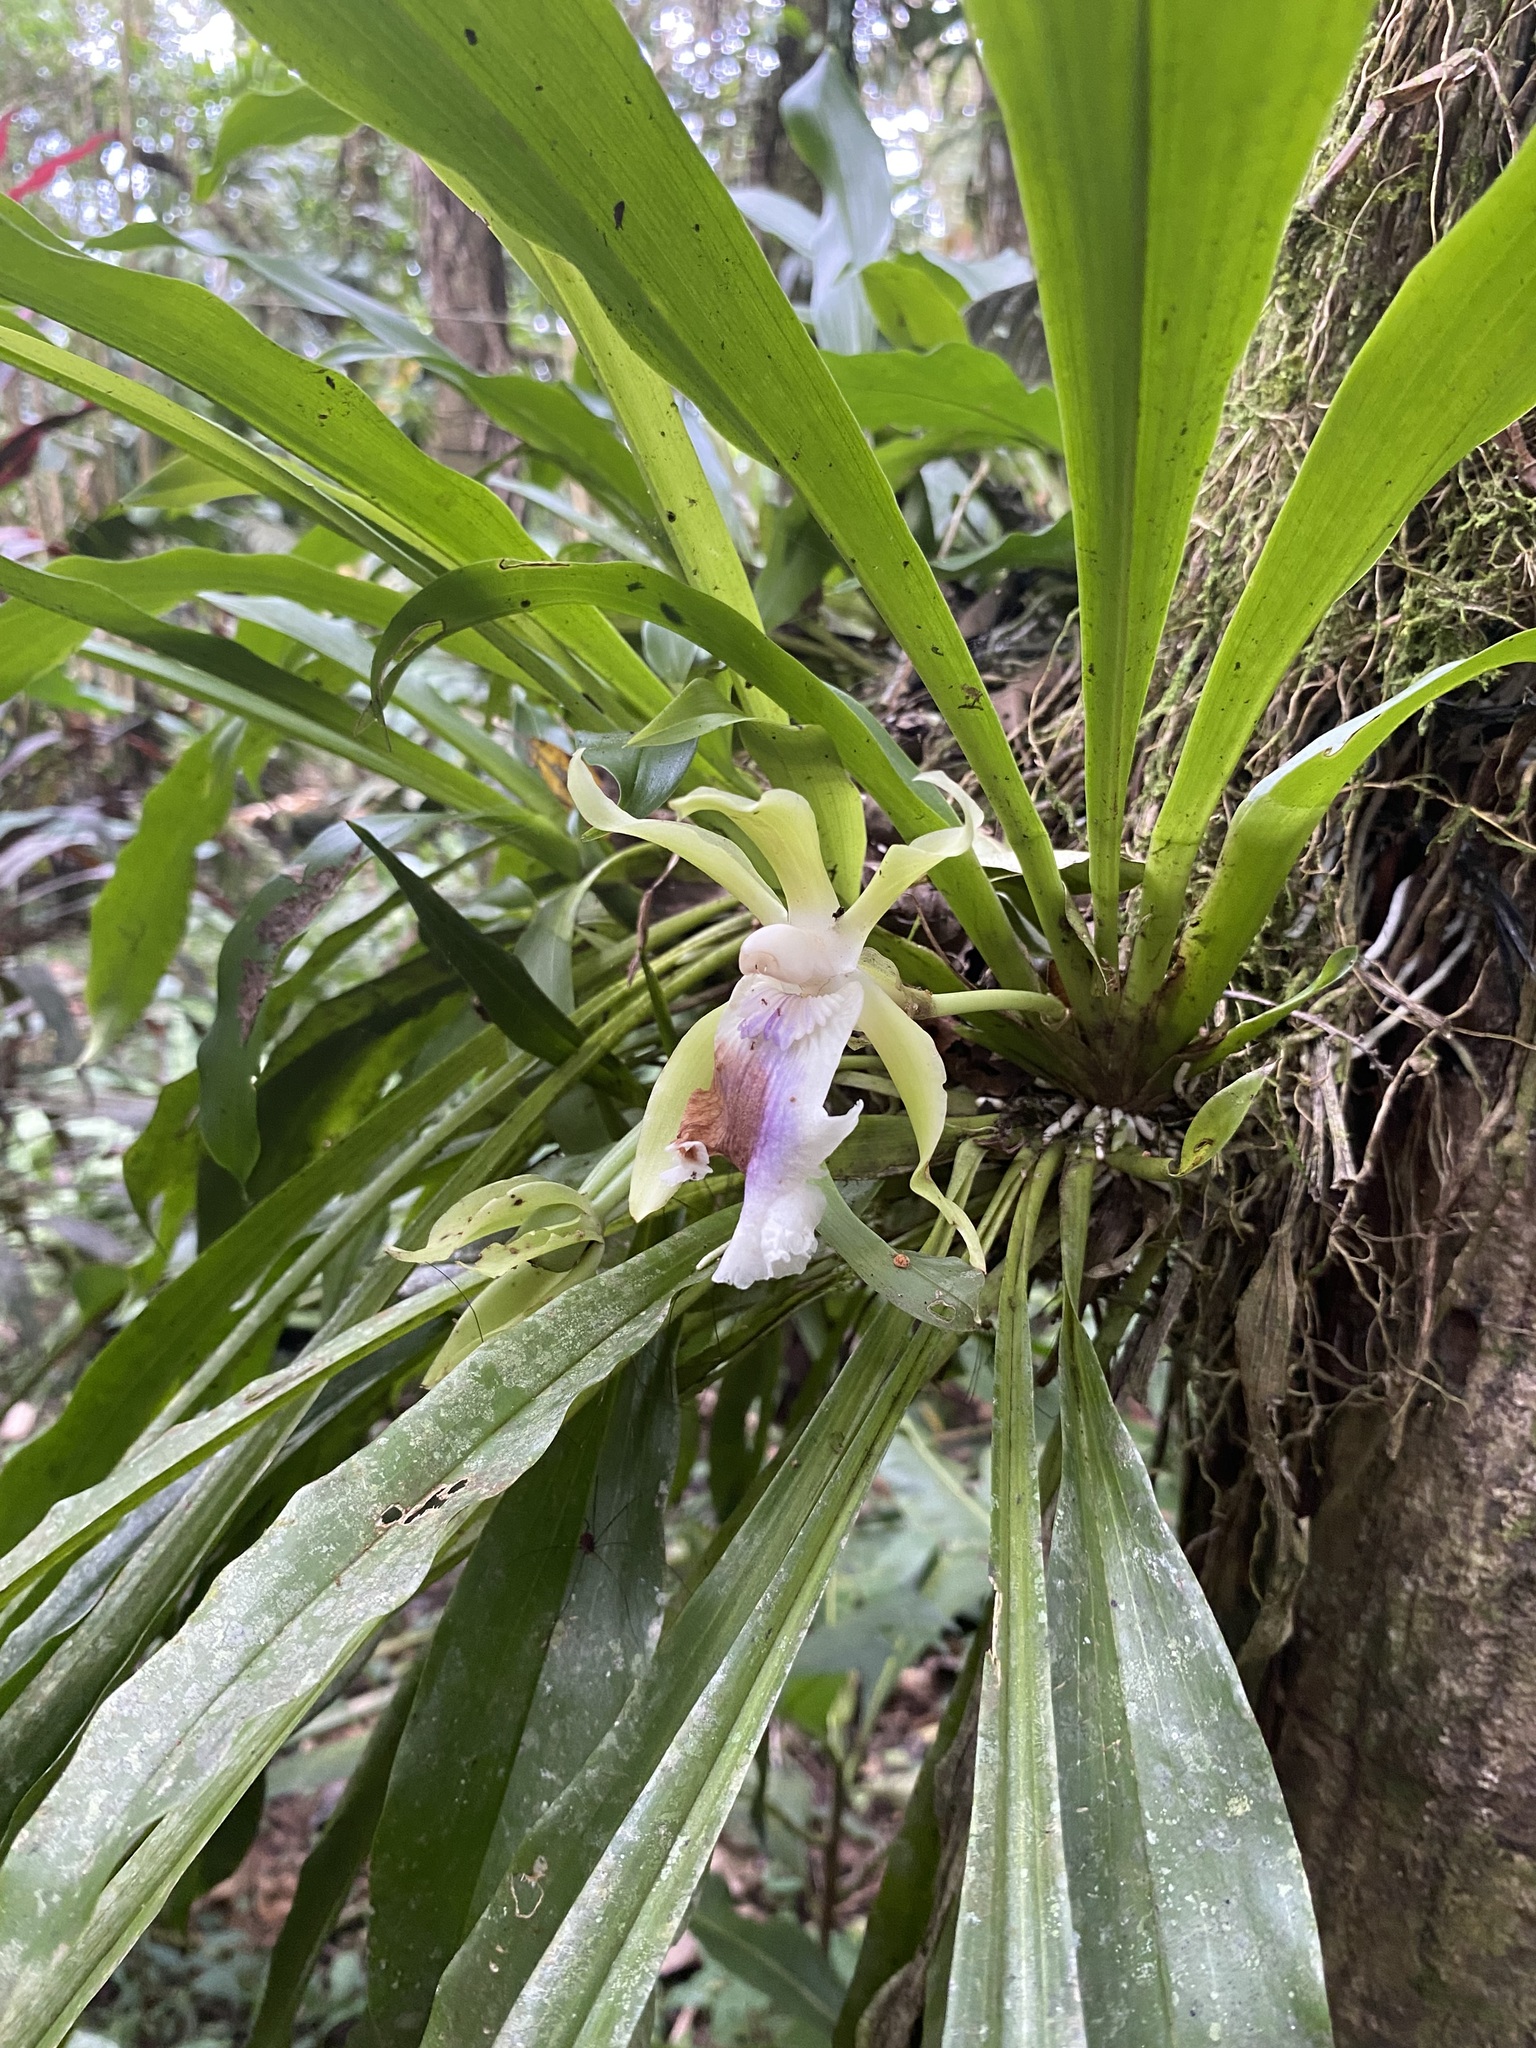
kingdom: Plantae
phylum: Tracheophyta
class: Liliopsida
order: Asparagales
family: Orchidaceae
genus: Cochleanthes
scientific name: Cochleanthes aromatica
